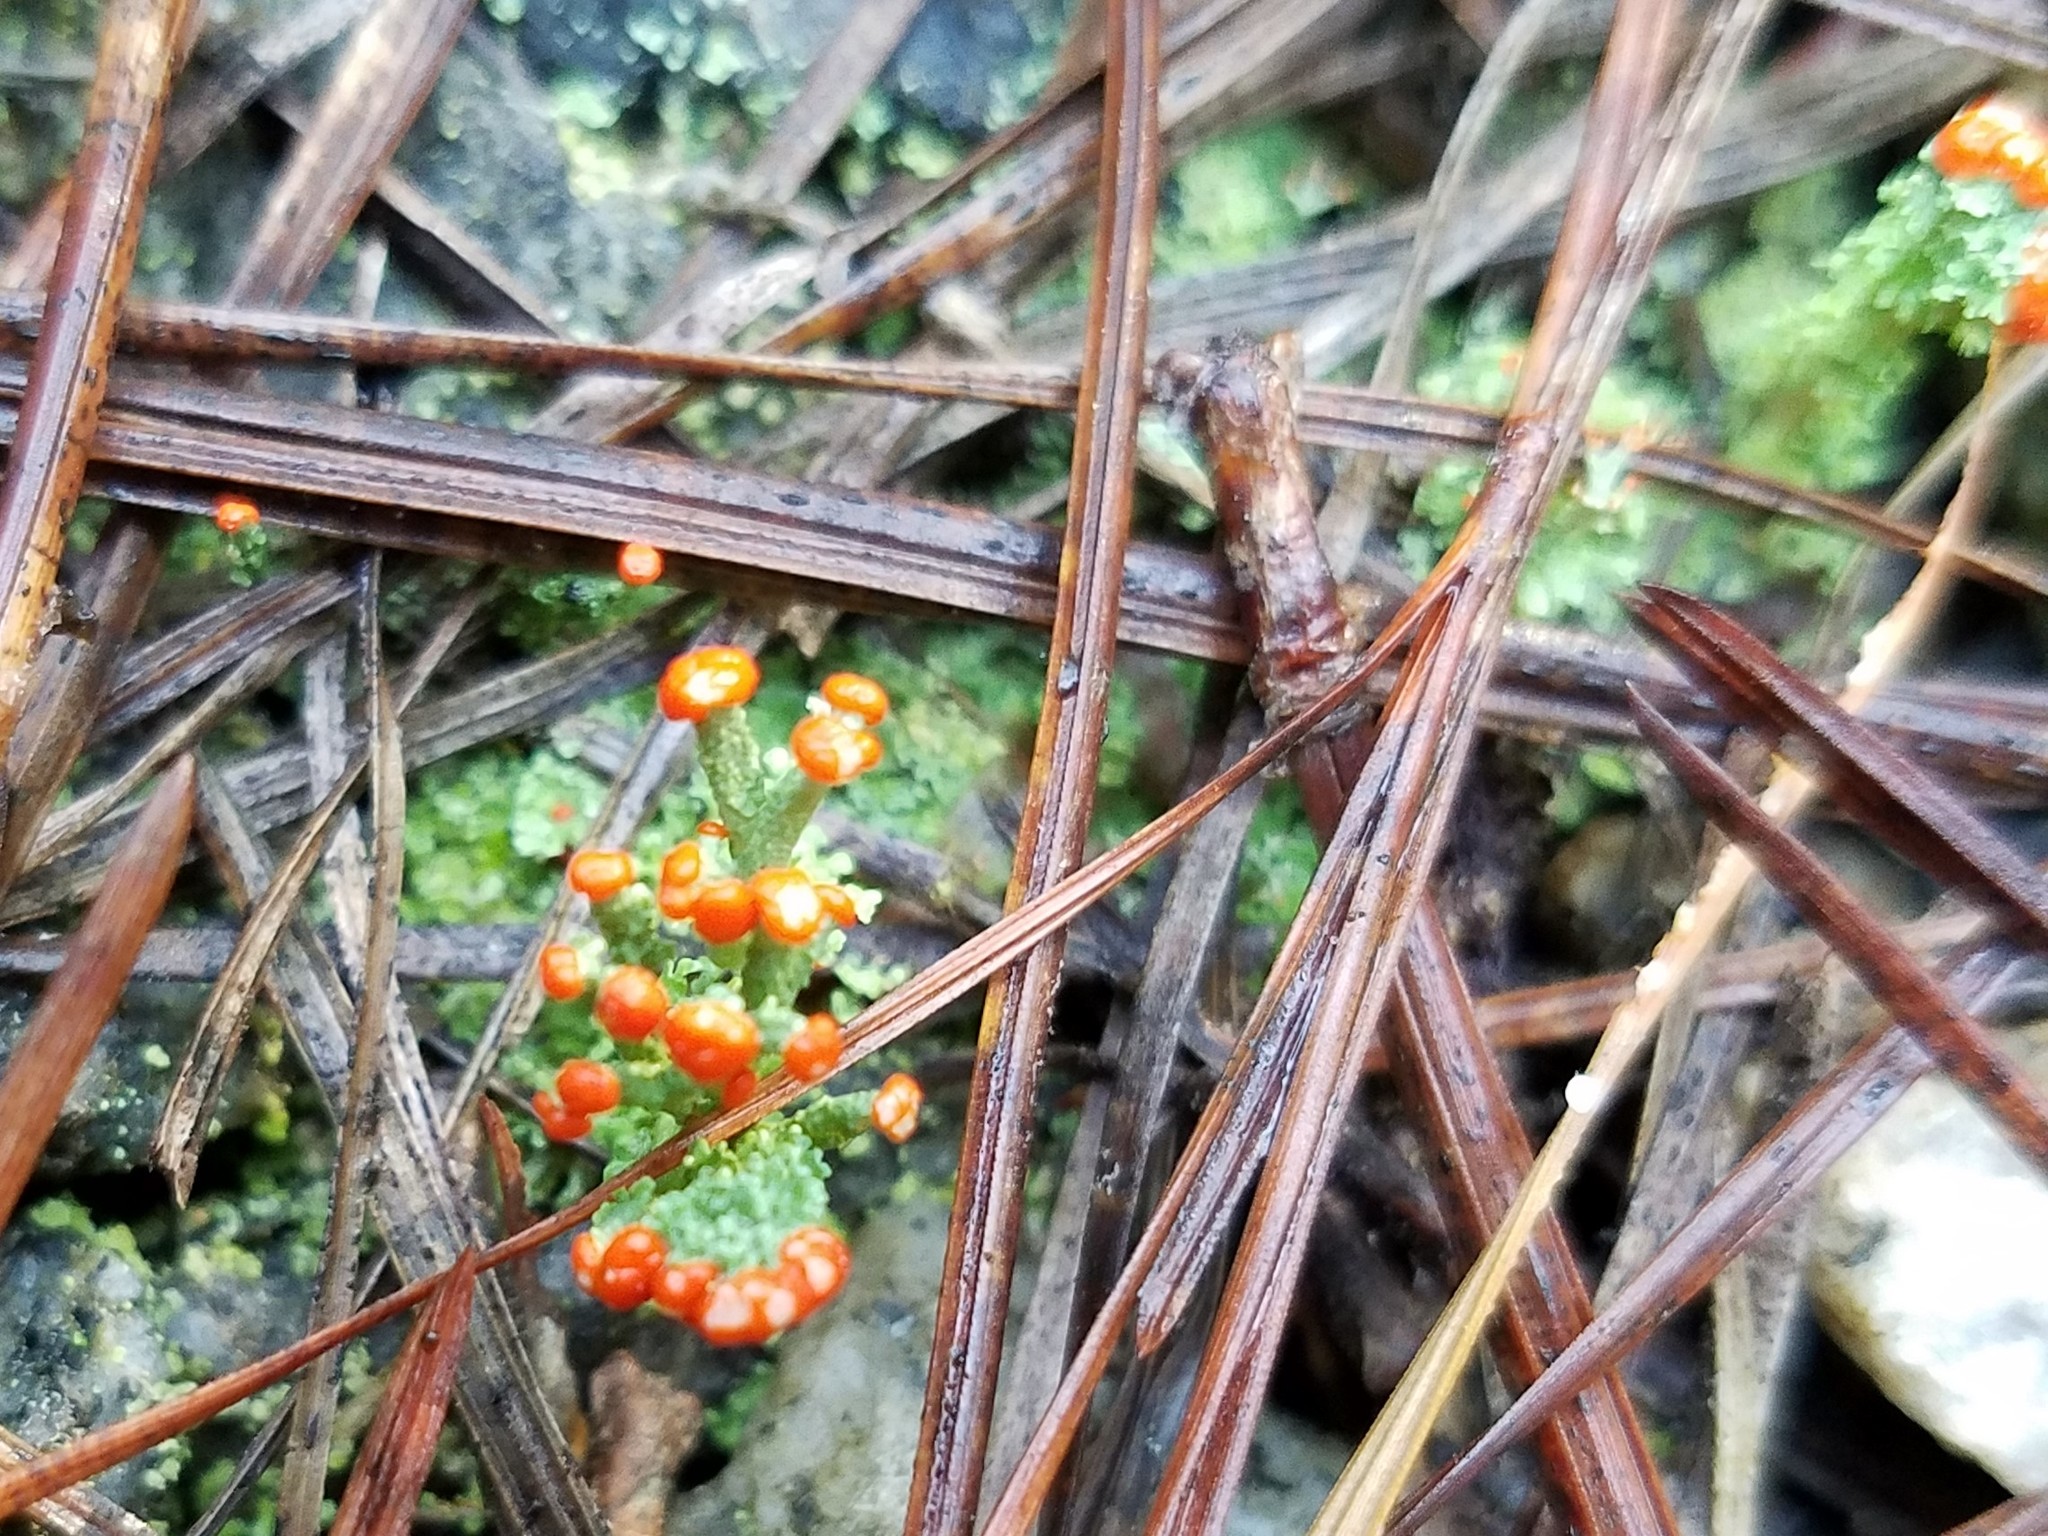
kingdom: Fungi
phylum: Ascomycota
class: Lecanoromycetes
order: Lecanorales
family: Cladoniaceae
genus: Cladonia
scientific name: Cladonia cristatella
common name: British soldier lichen
